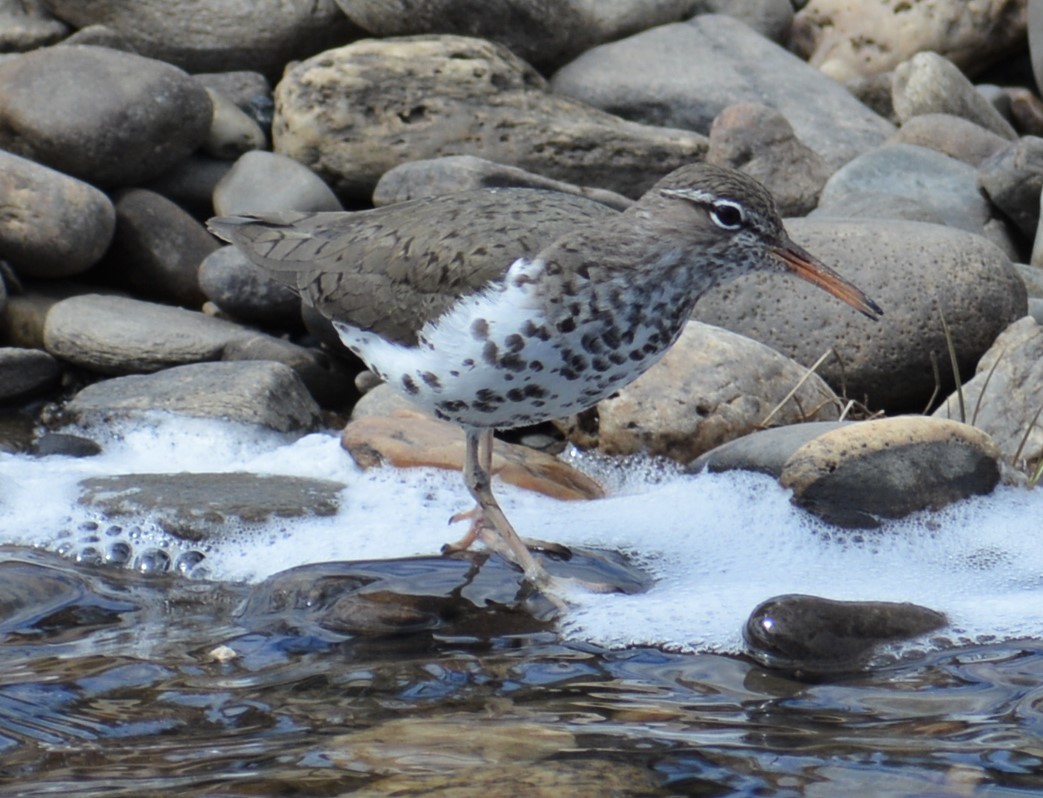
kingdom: Animalia
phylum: Chordata
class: Aves
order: Charadriiformes
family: Scolopacidae
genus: Actitis
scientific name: Actitis macularius
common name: Spotted sandpiper
